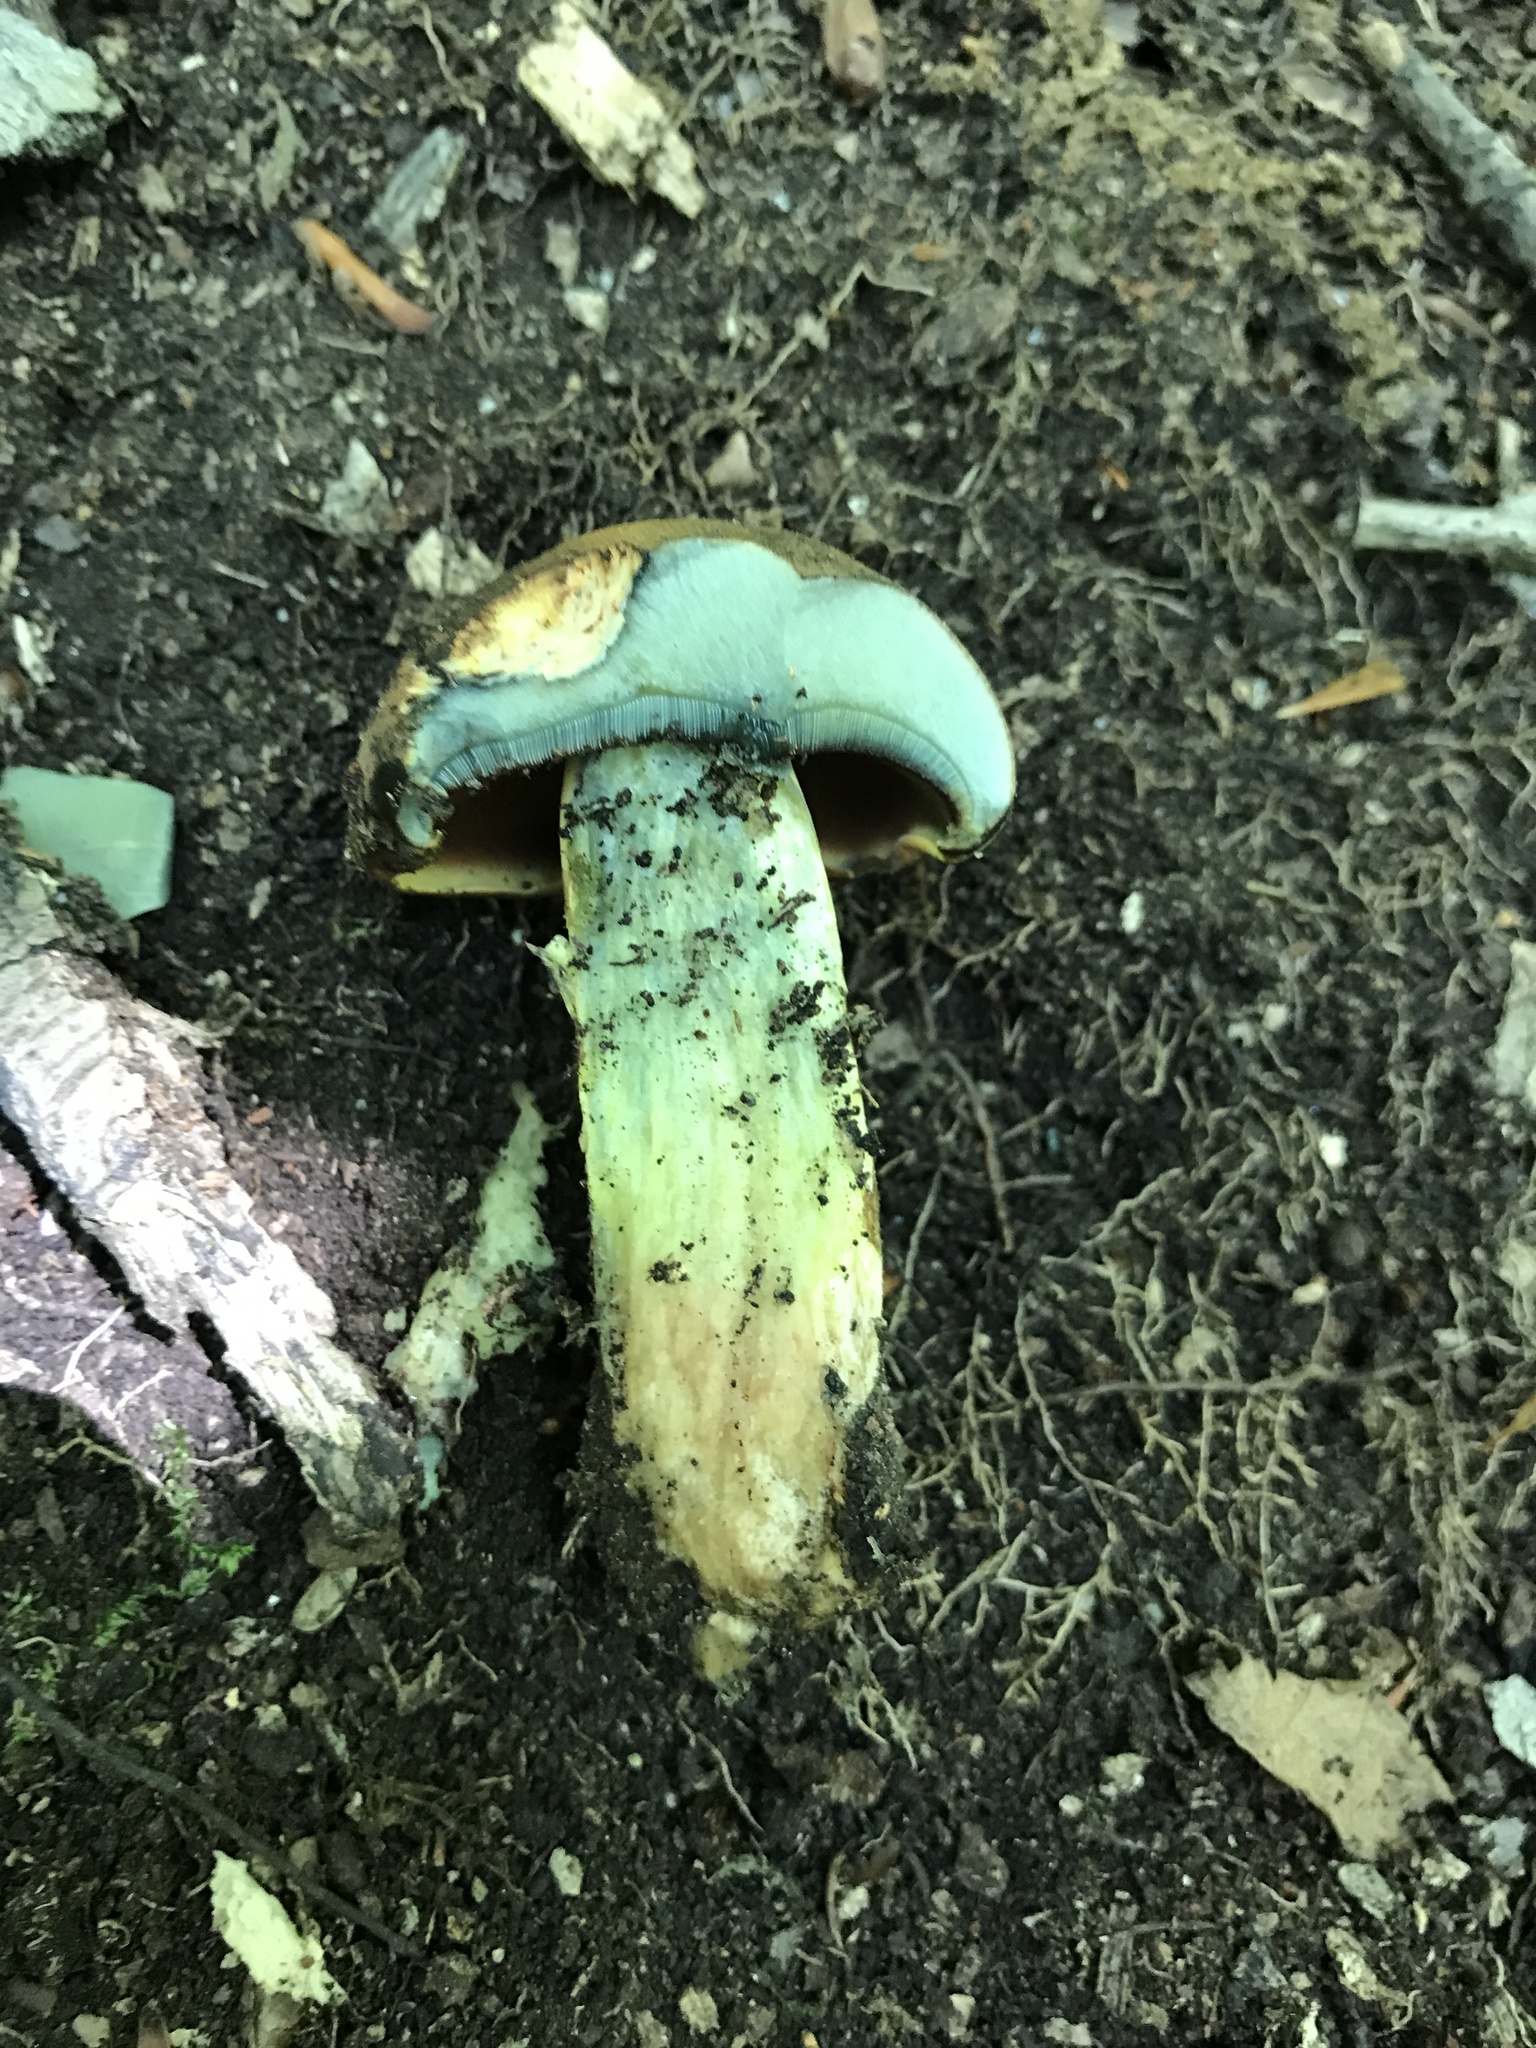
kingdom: Fungi
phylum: Basidiomycota
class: Agaricomycetes
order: Boletales
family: Boletaceae
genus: Boletus
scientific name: Boletus vermiculosoides
